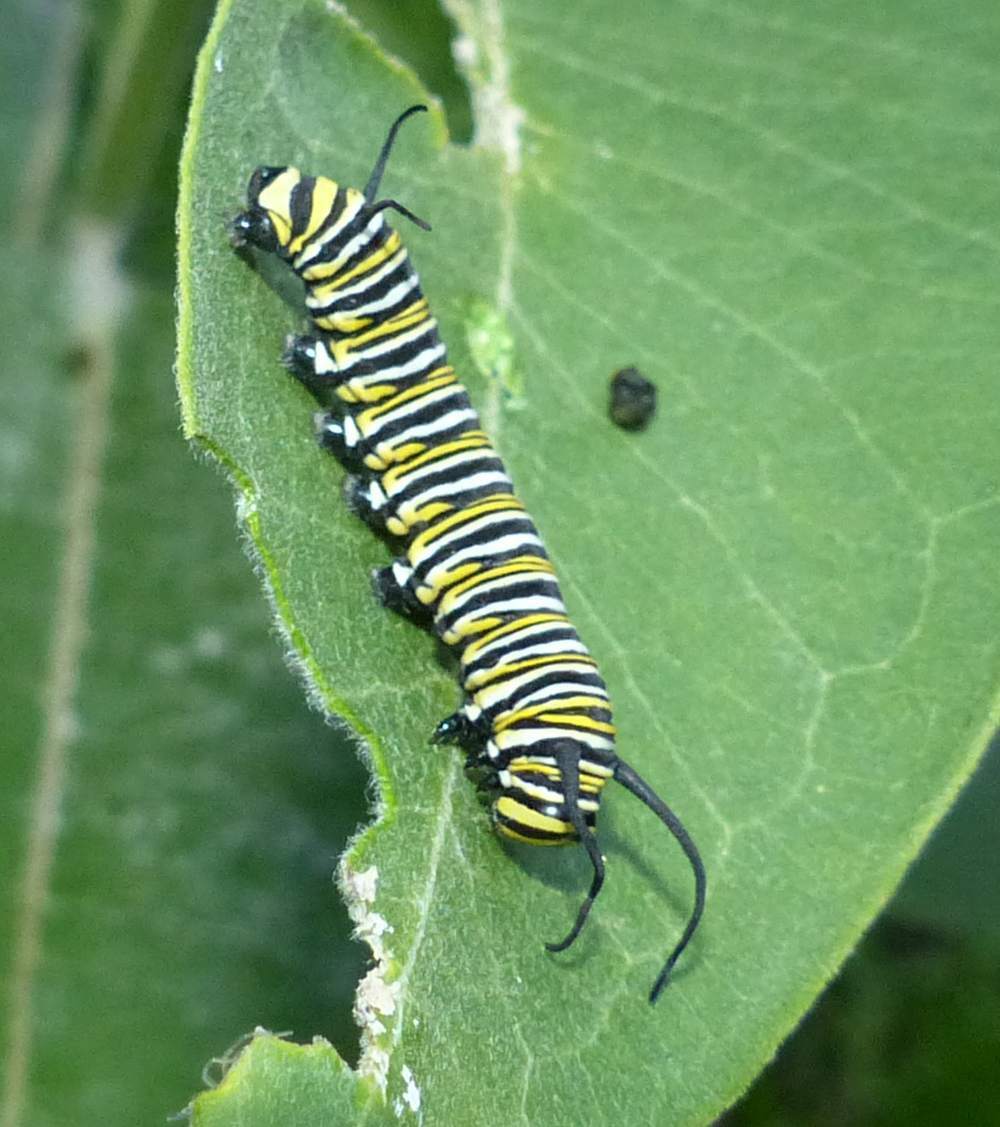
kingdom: Animalia
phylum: Arthropoda
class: Insecta
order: Lepidoptera
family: Nymphalidae
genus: Danaus
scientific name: Danaus plexippus
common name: Monarch
